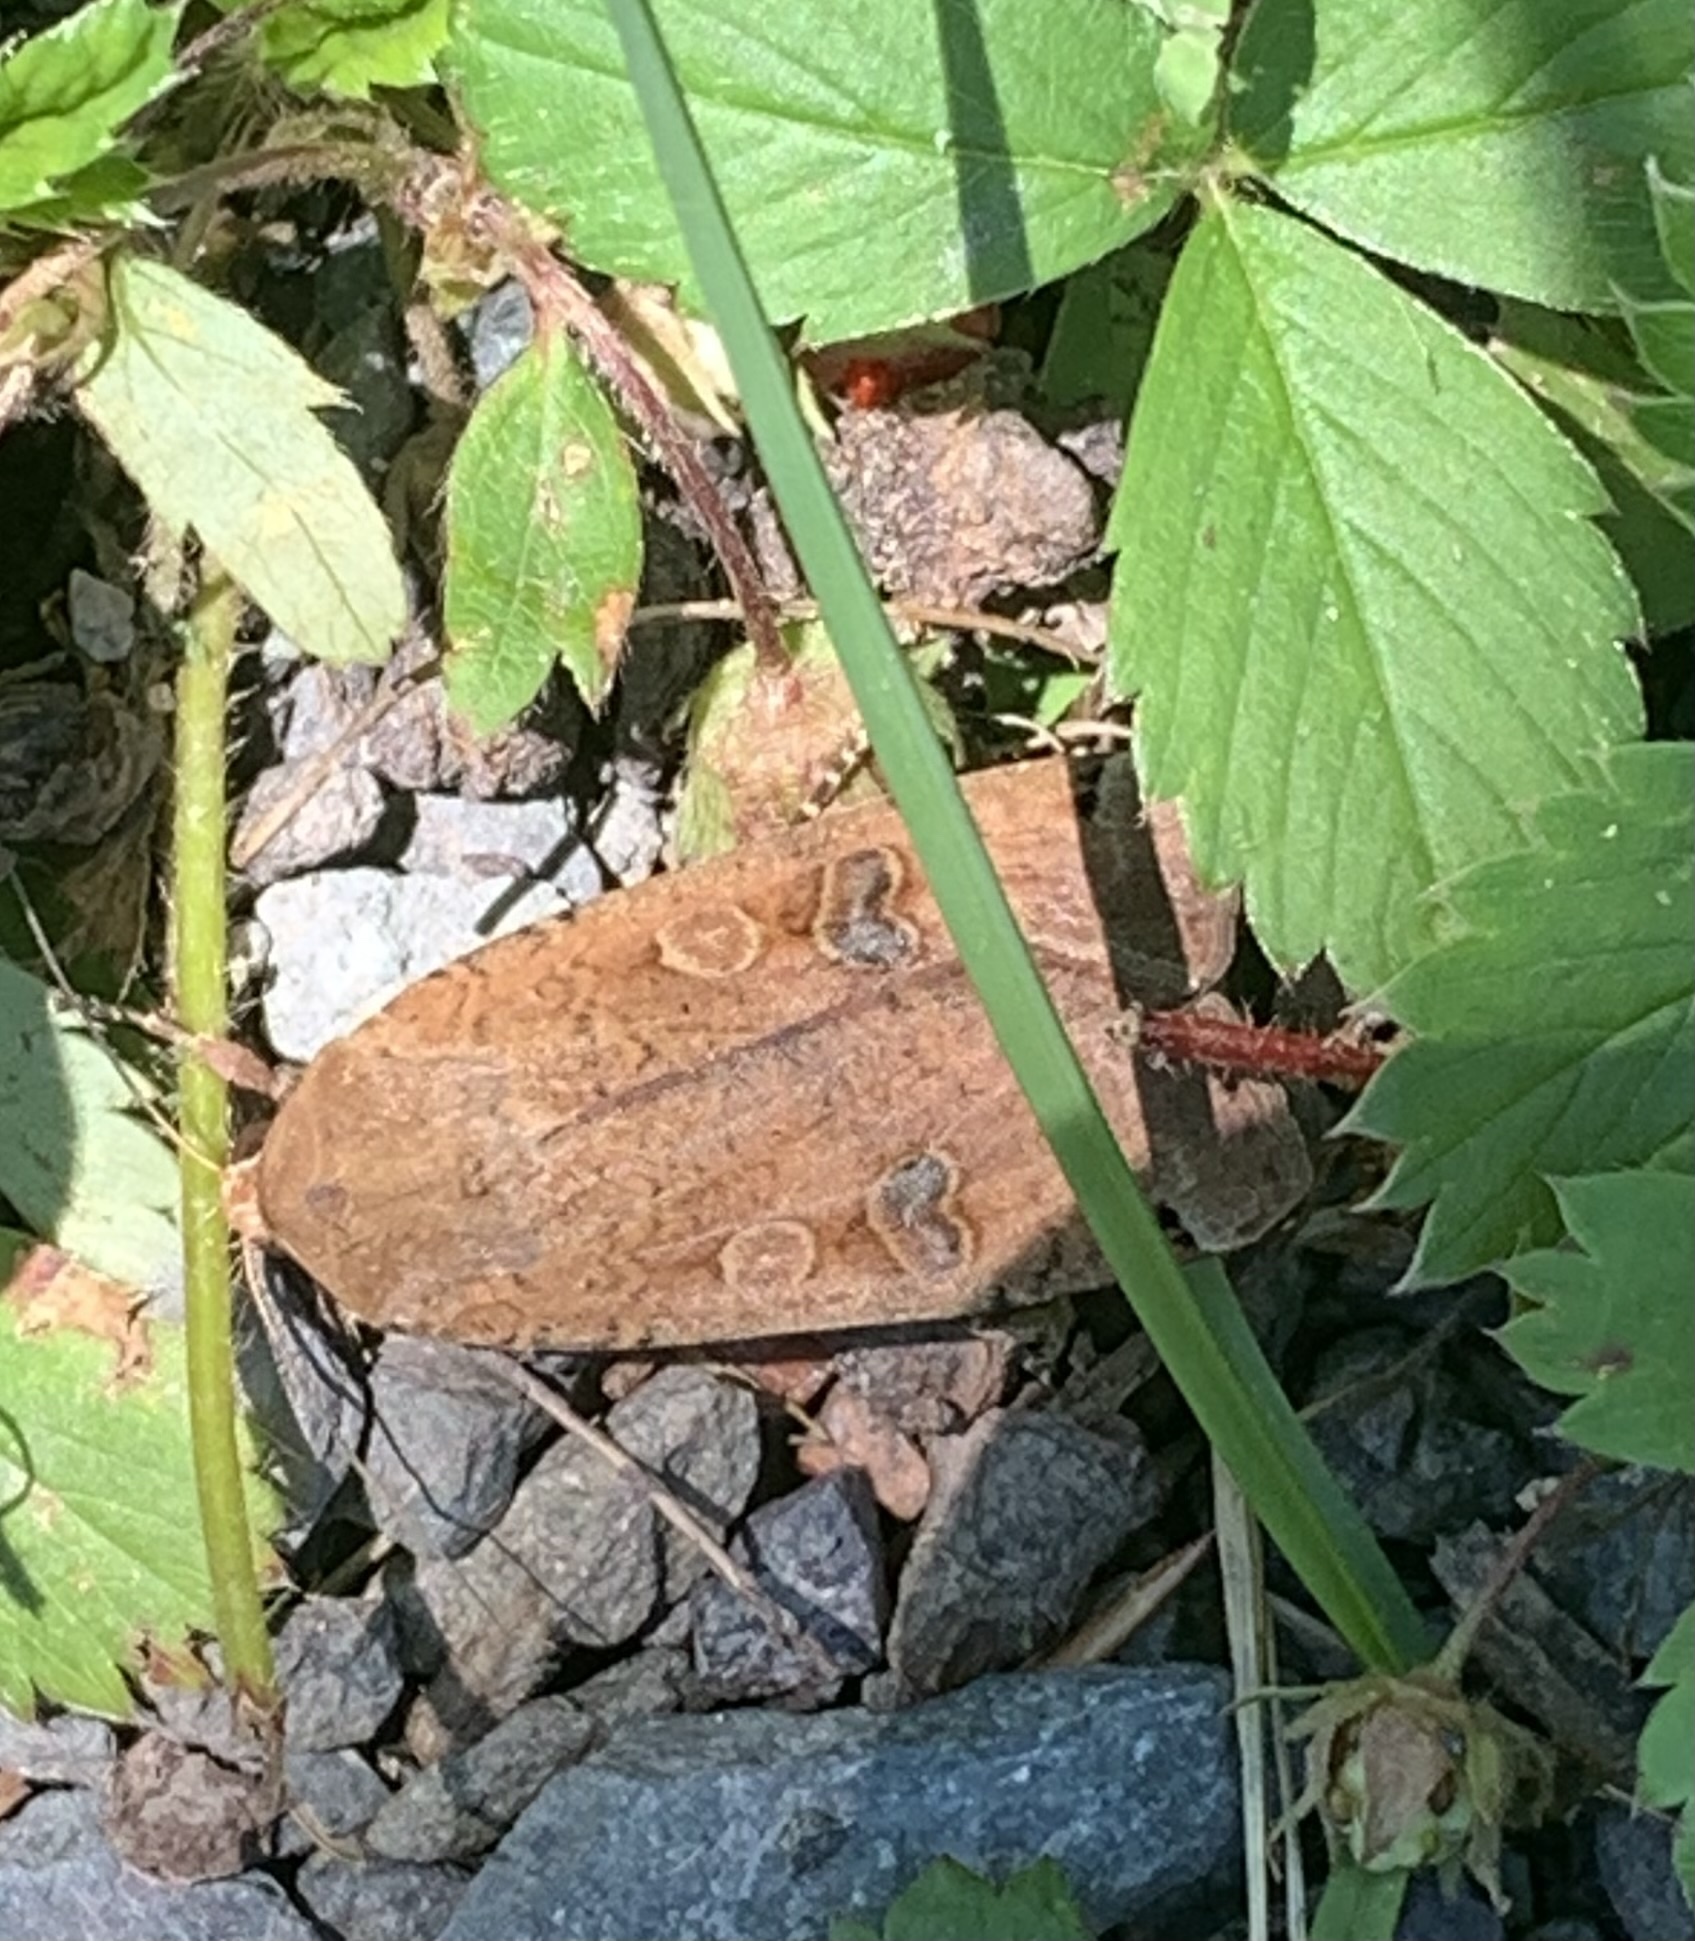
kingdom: Animalia
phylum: Arthropoda
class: Insecta
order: Lepidoptera
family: Noctuidae
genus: Noctua
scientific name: Noctua pronuba
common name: Large yellow underwing
